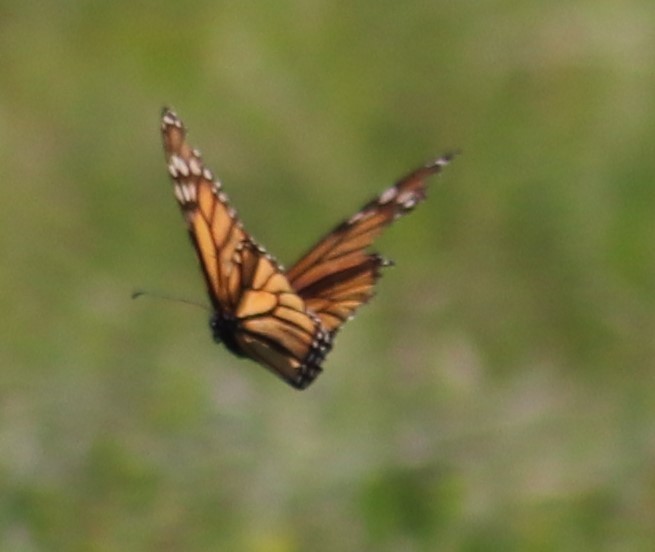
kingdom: Animalia
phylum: Arthropoda
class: Insecta
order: Lepidoptera
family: Nymphalidae
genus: Danaus
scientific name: Danaus plexippus
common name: Monarch
